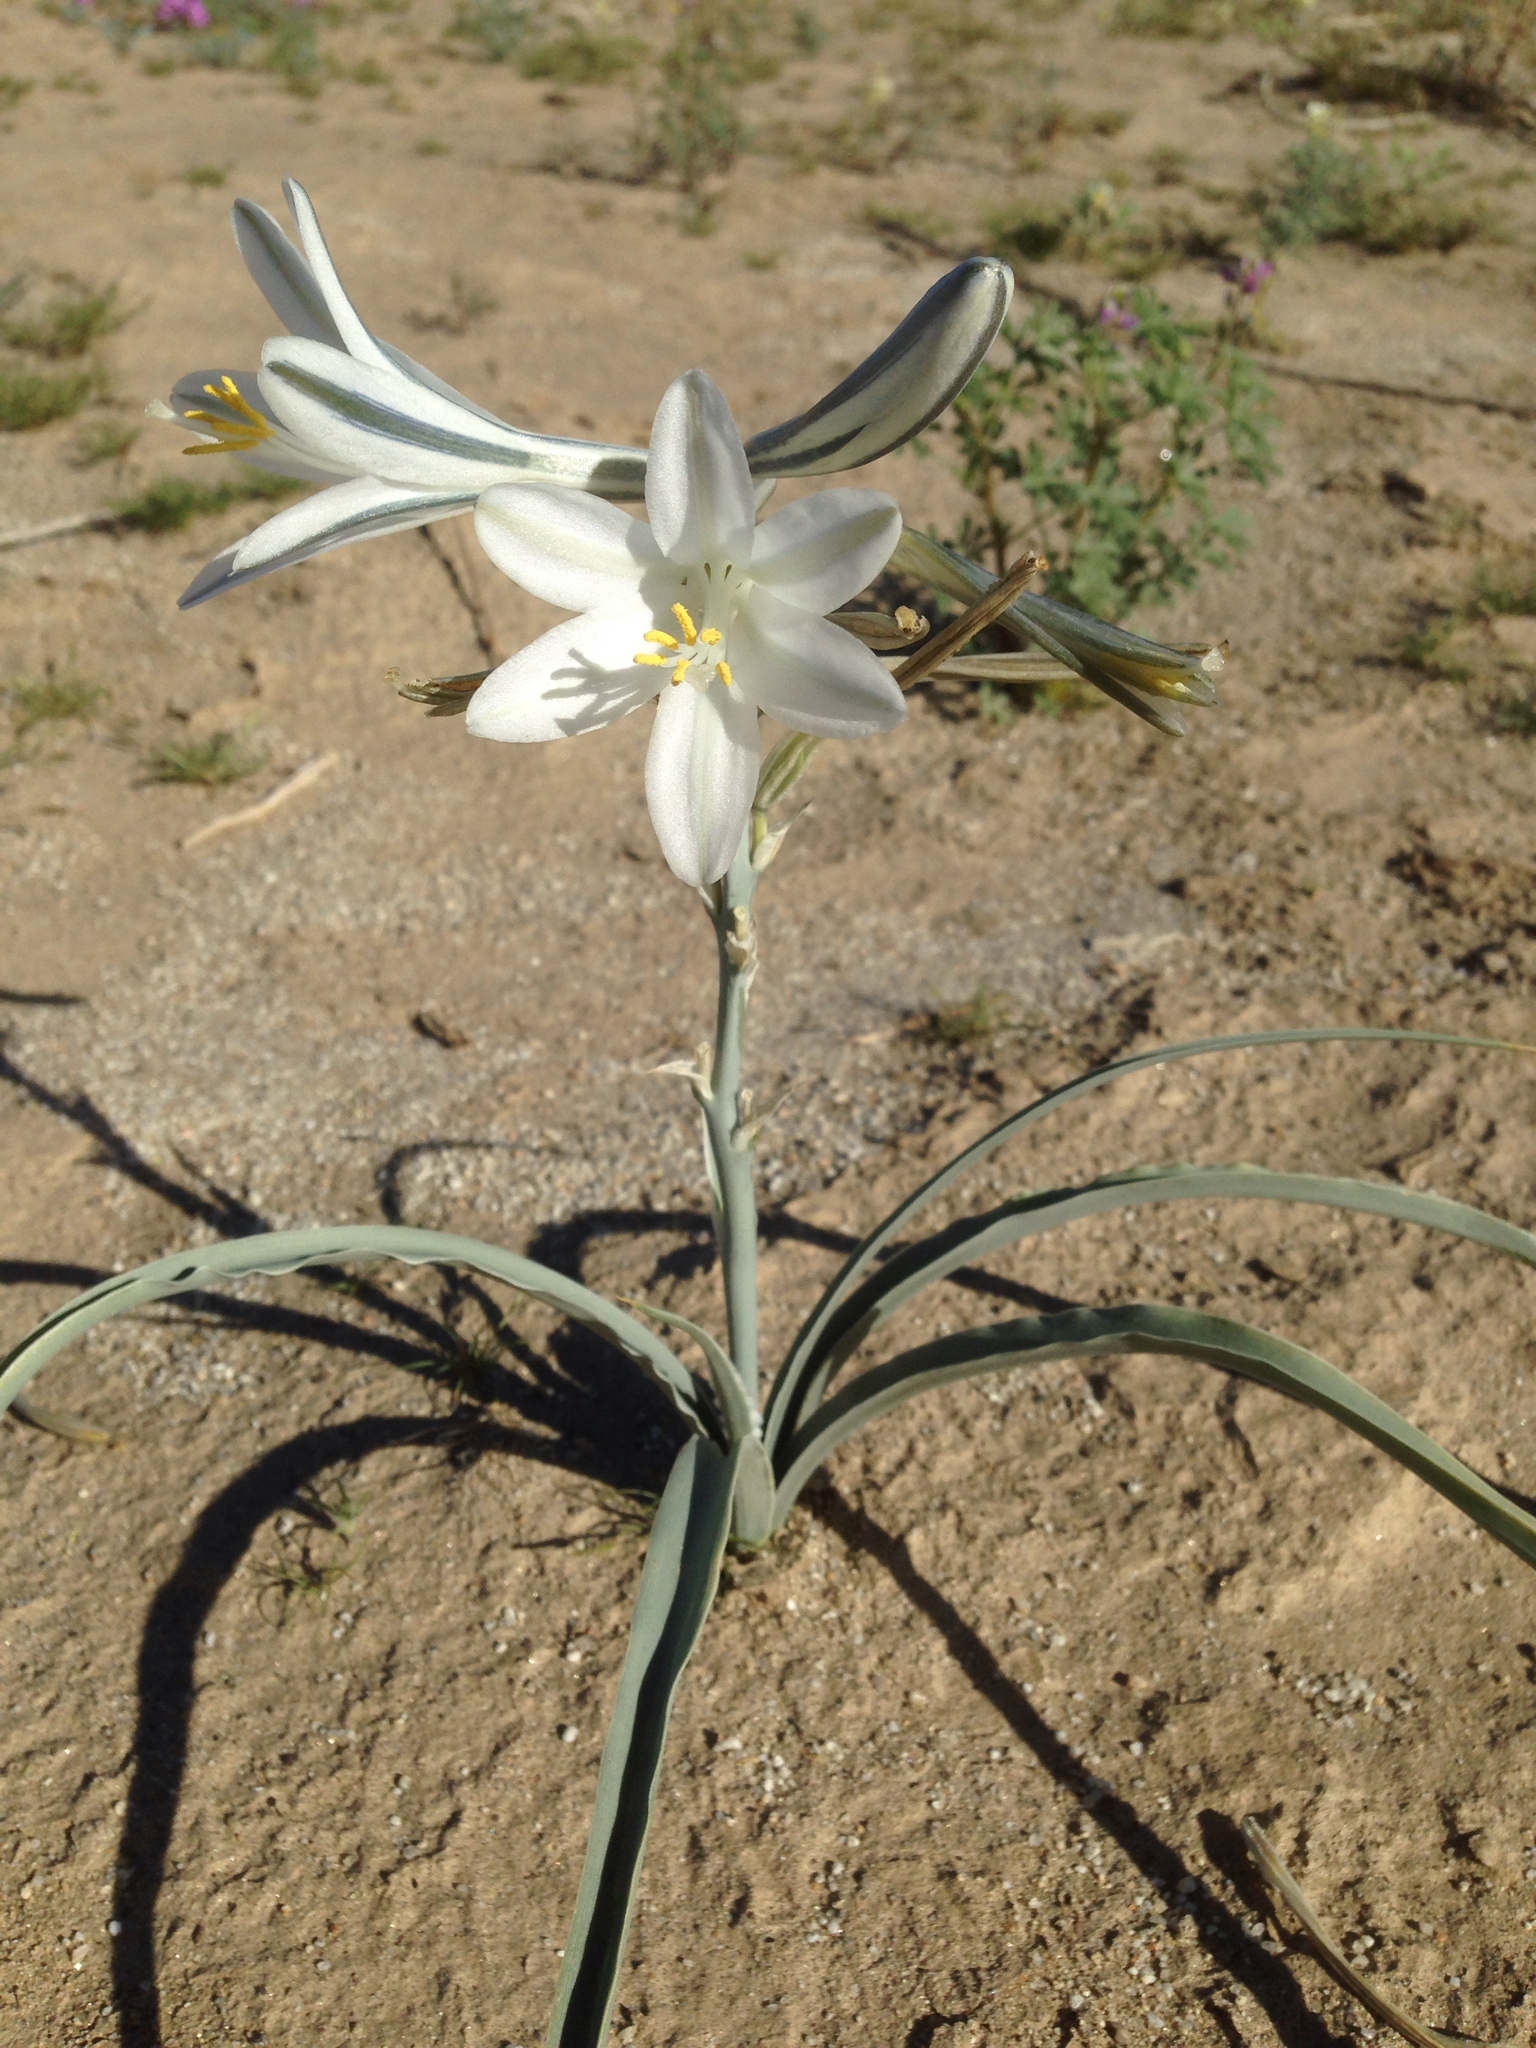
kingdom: Plantae
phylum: Tracheophyta
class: Liliopsida
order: Asparagales
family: Asparagaceae
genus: Hesperocallis
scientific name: Hesperocallis undulata
